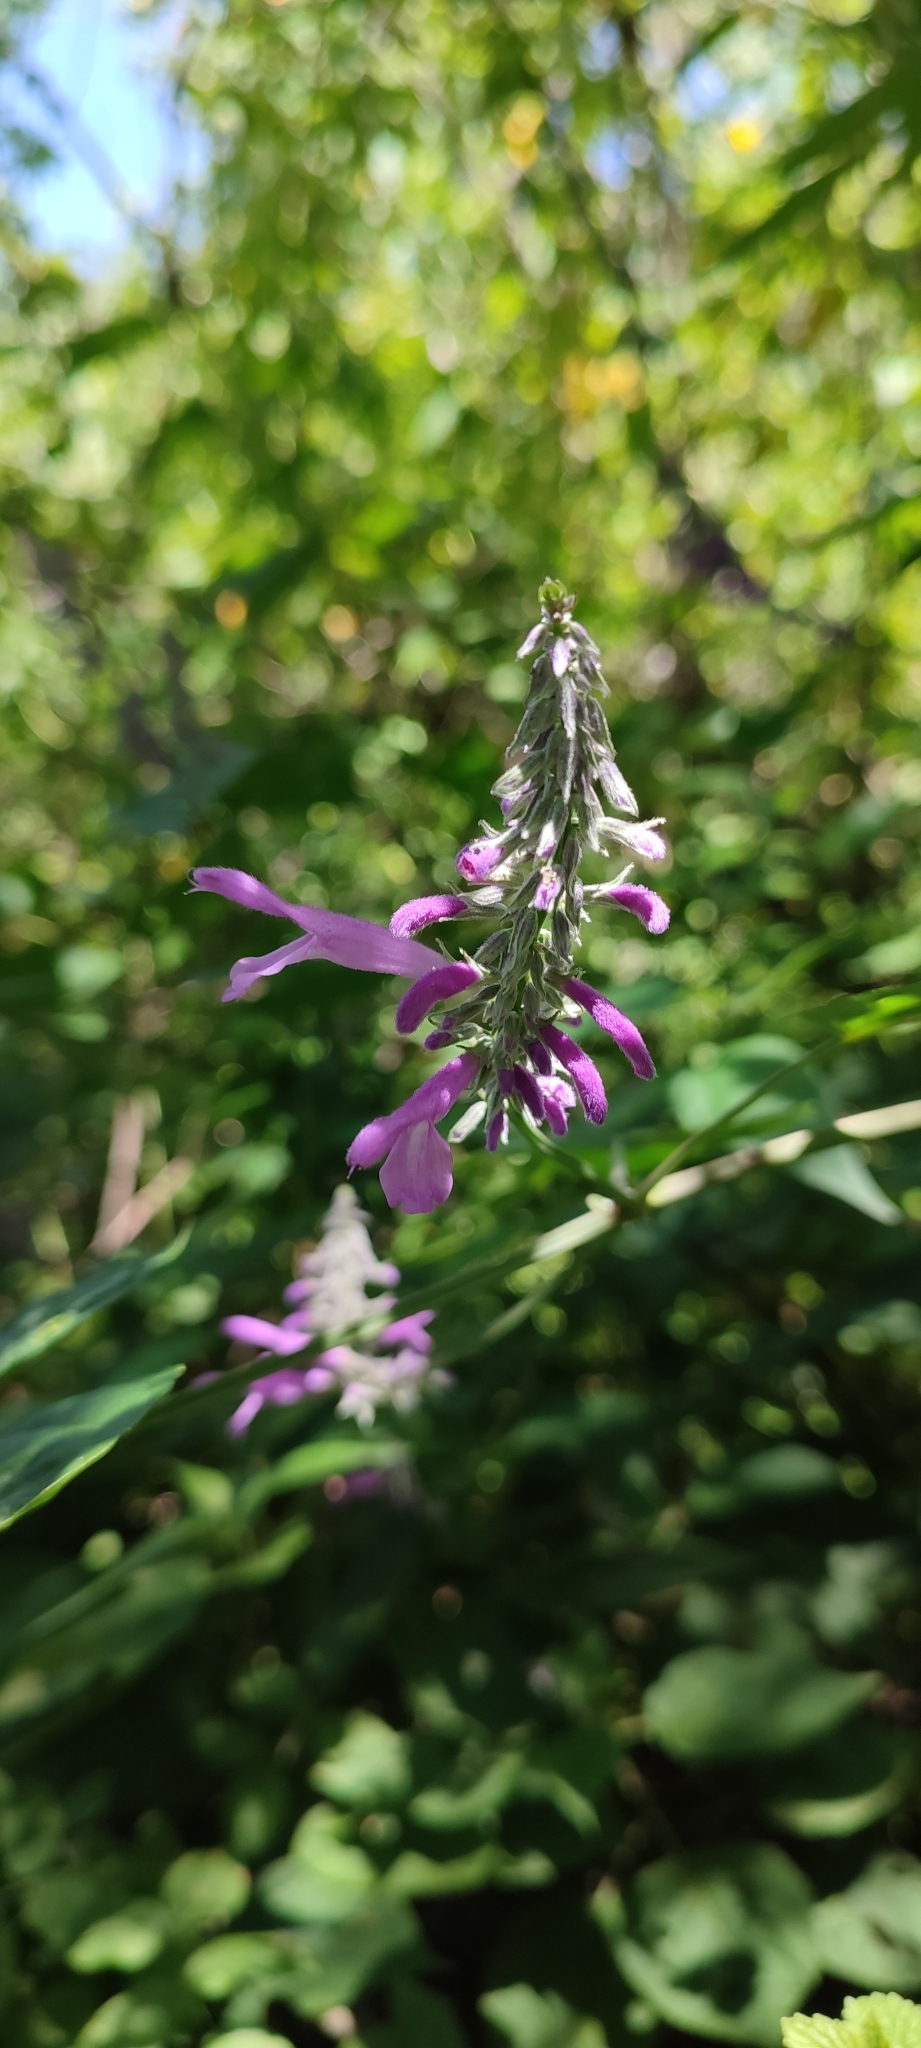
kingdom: Plantae
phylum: Tracheophyta
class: Magnoliopsida
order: Lamiales
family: Lamiaceae
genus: Salvia
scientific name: Salvia purpurea
